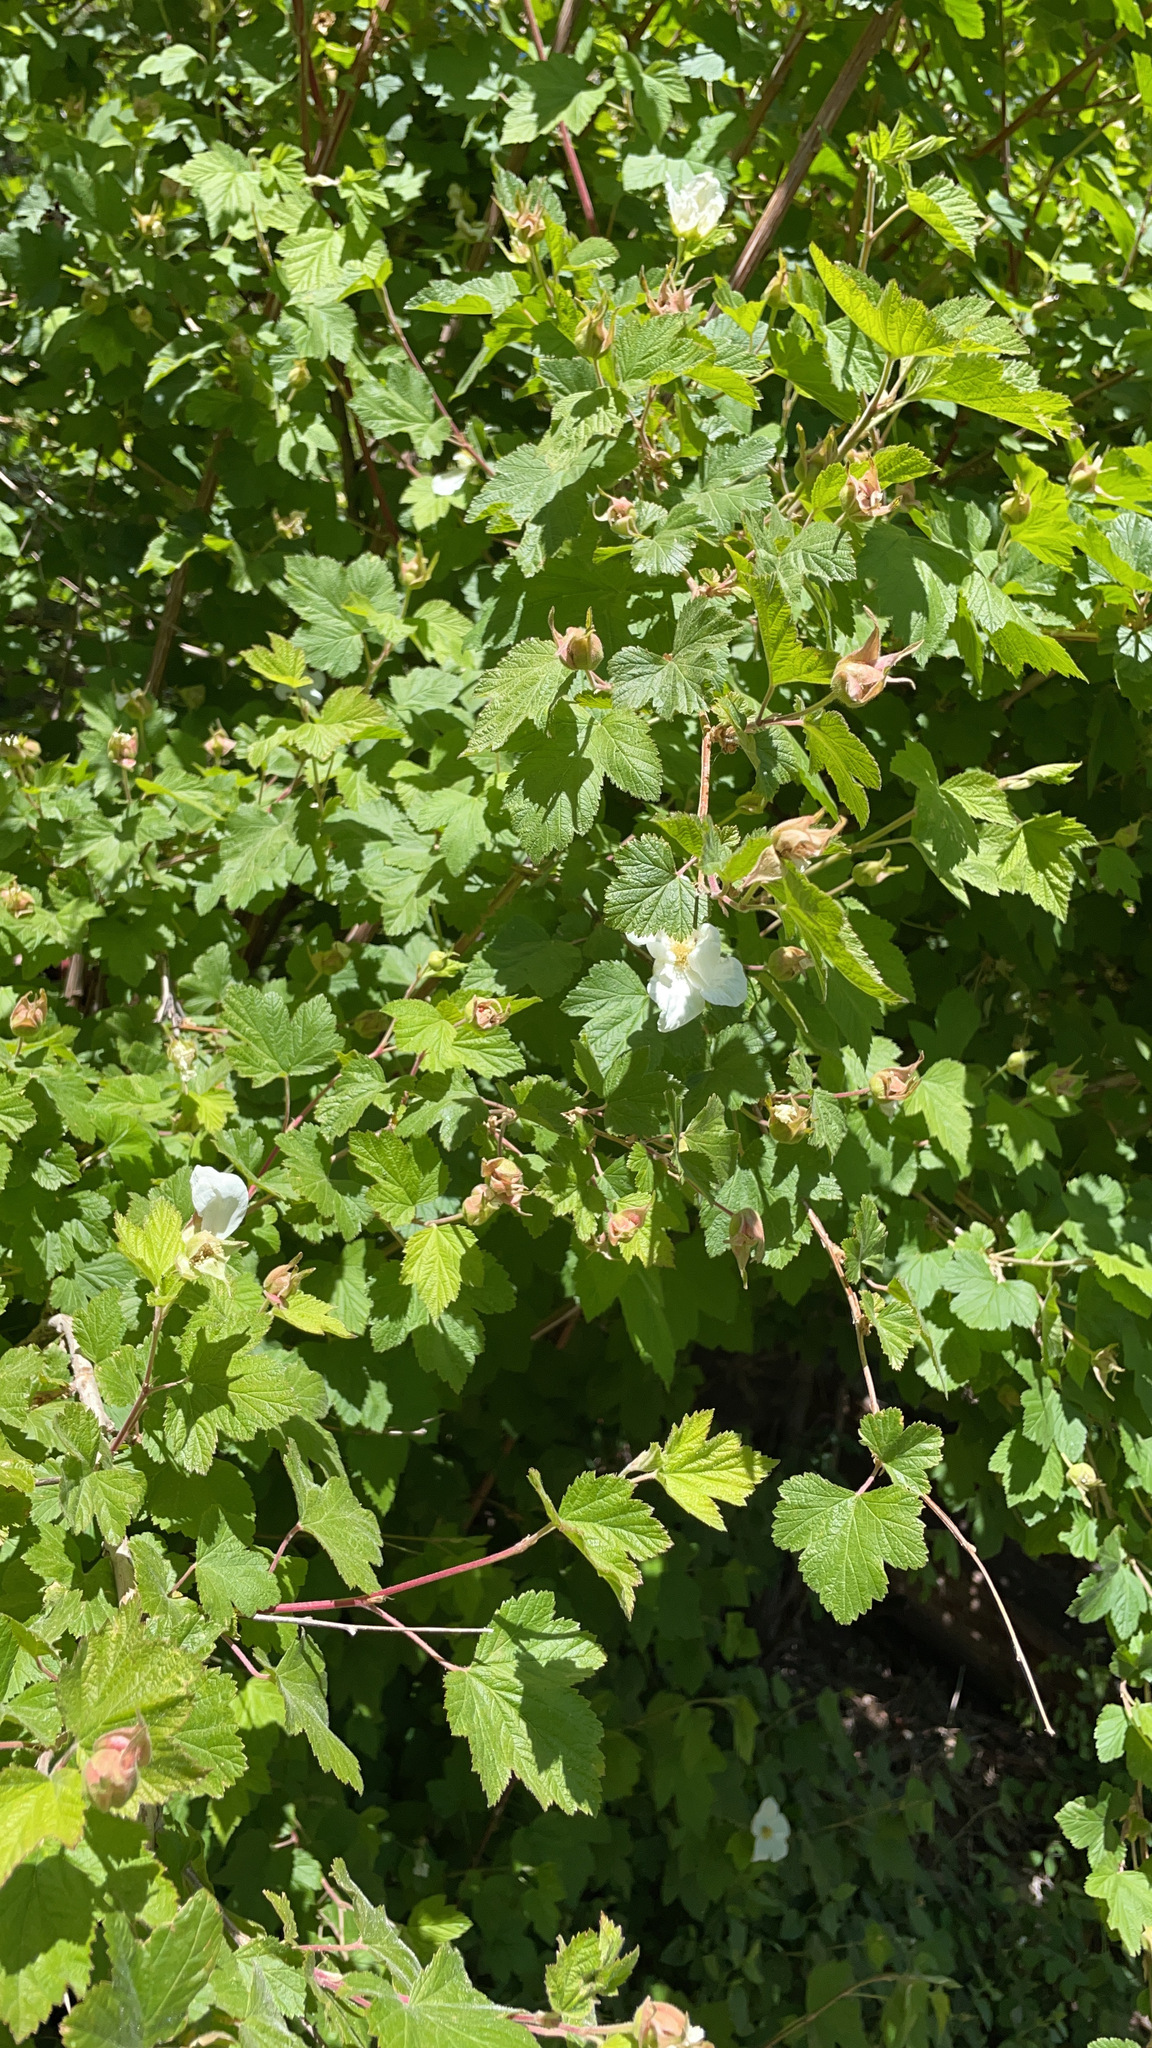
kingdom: Plantae
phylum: Tracheophyta
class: Magnoliopsida
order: Rosales
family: Rosaceae
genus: Rubus
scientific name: Rubus neomexicanus
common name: New mexico raspberry
